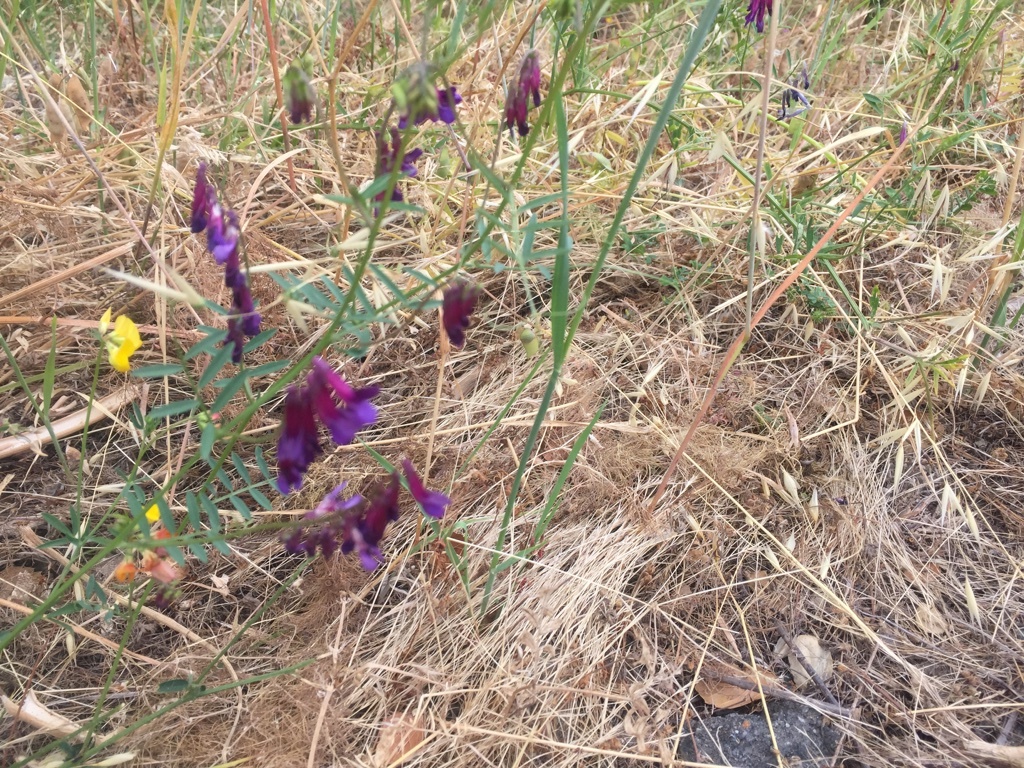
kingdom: Plantae
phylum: Tracheophyta
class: Magnoliopsida
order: Fabales
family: Fabaceae
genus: Vicia
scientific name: Vicia villosa
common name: Fodder vetch
